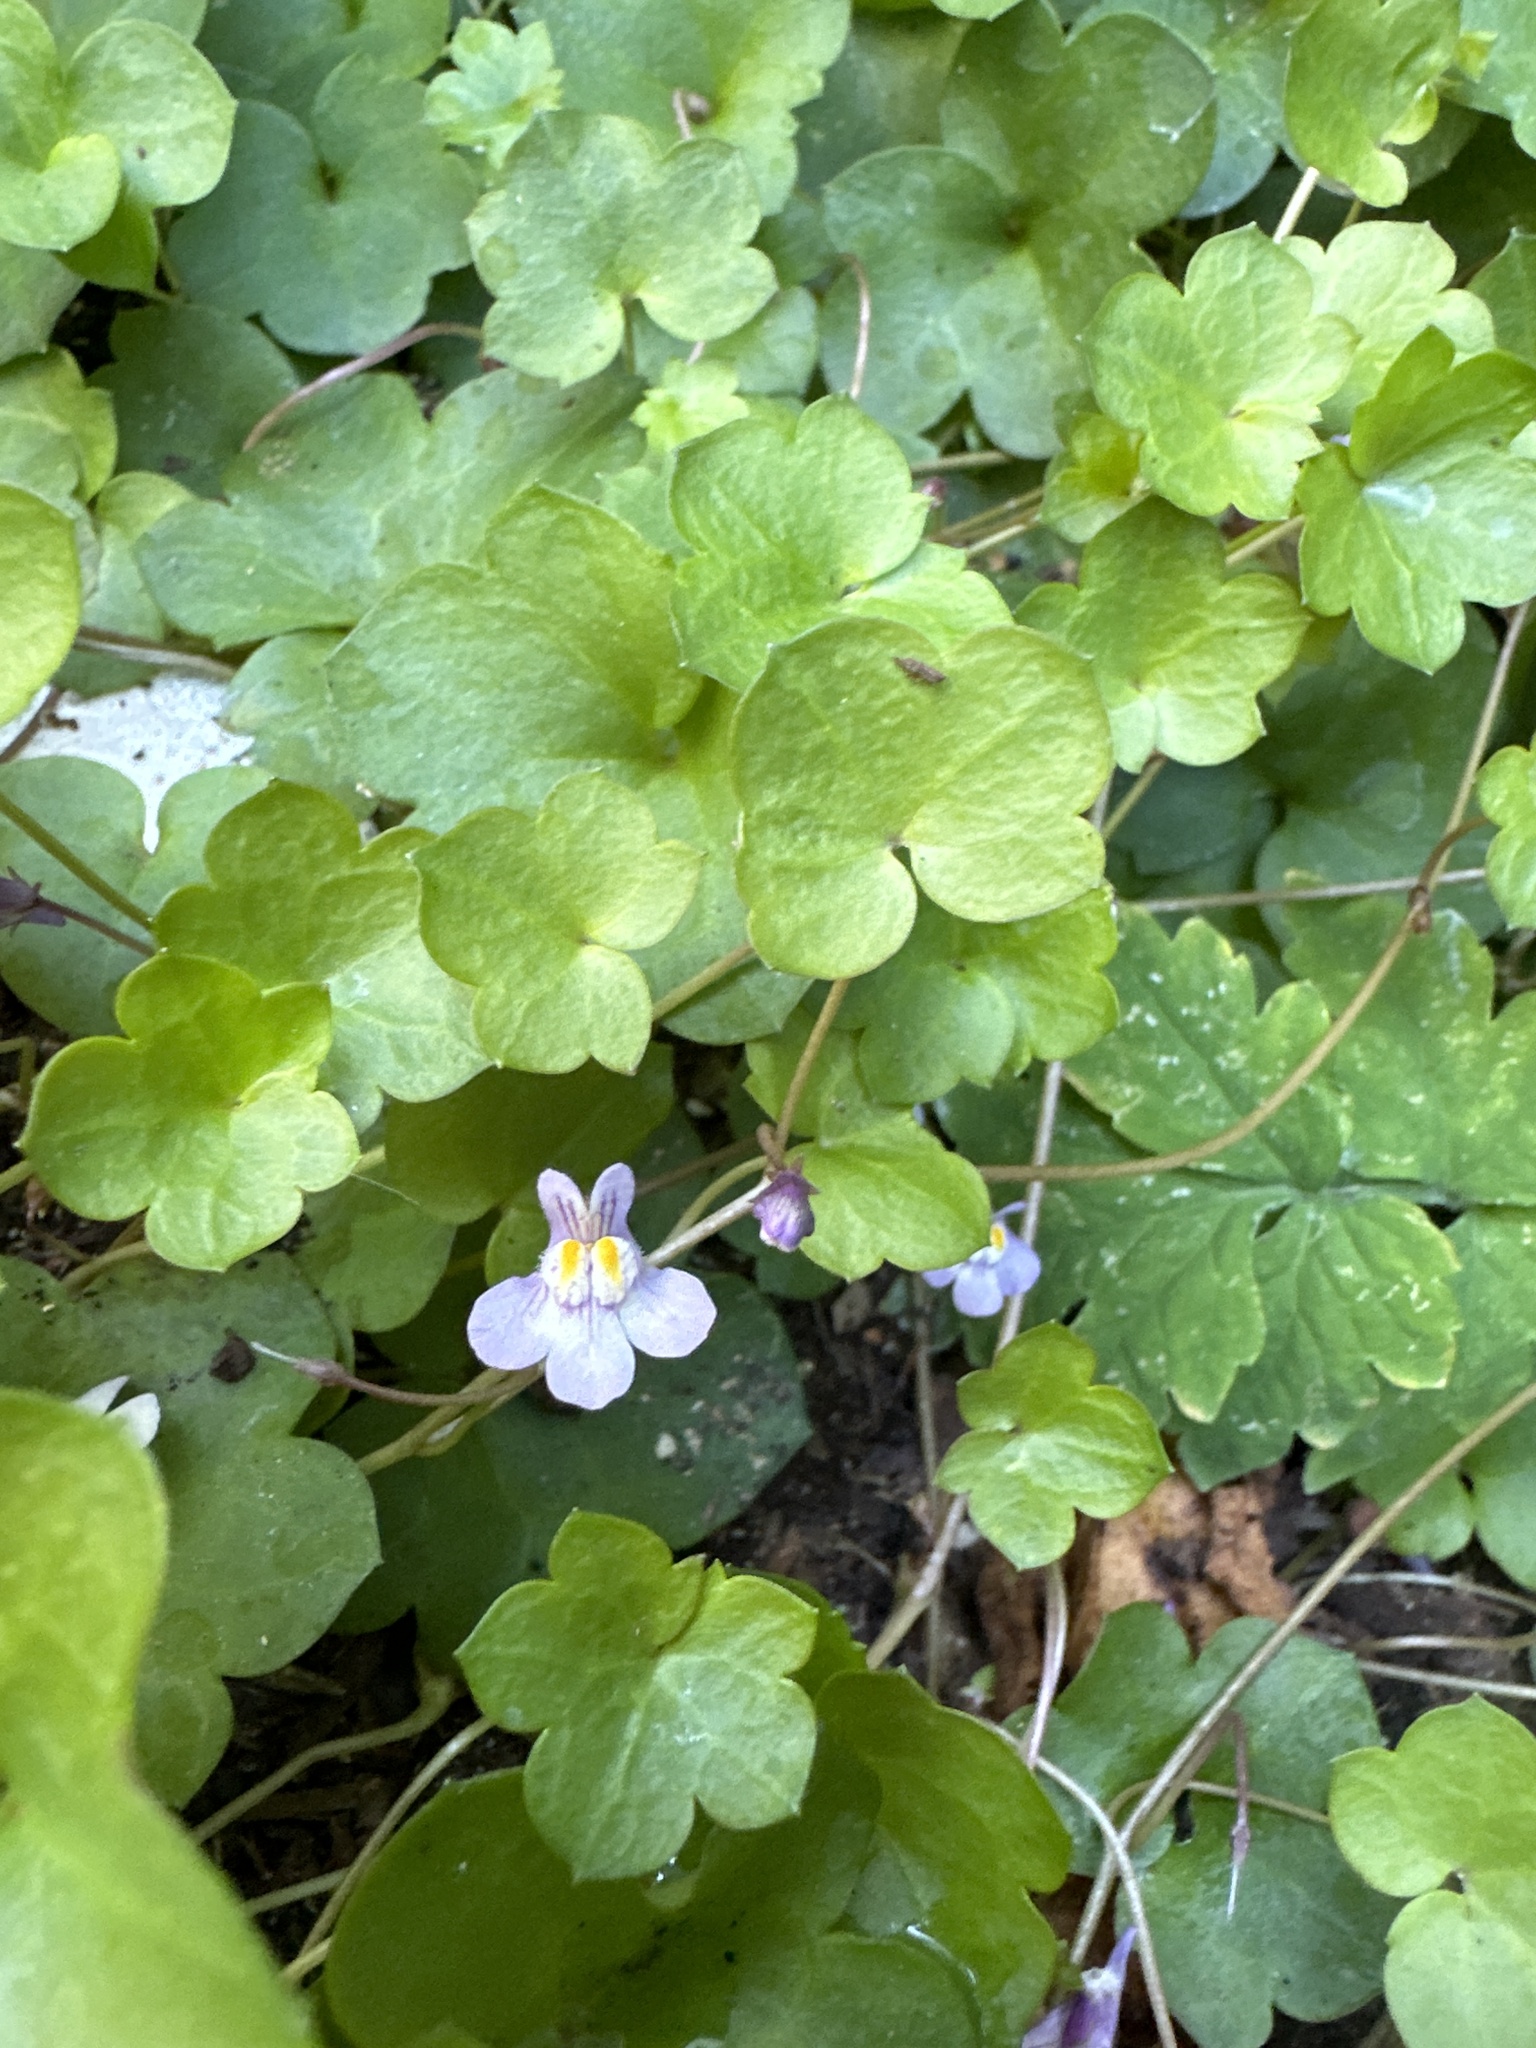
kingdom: Plantae
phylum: Tracheophyta
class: Magnoliopsida
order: Lamiales
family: Plantaginaceae
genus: Cymbalaria
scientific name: Cymbalaria muralis
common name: Ivy-leaved toadflax
